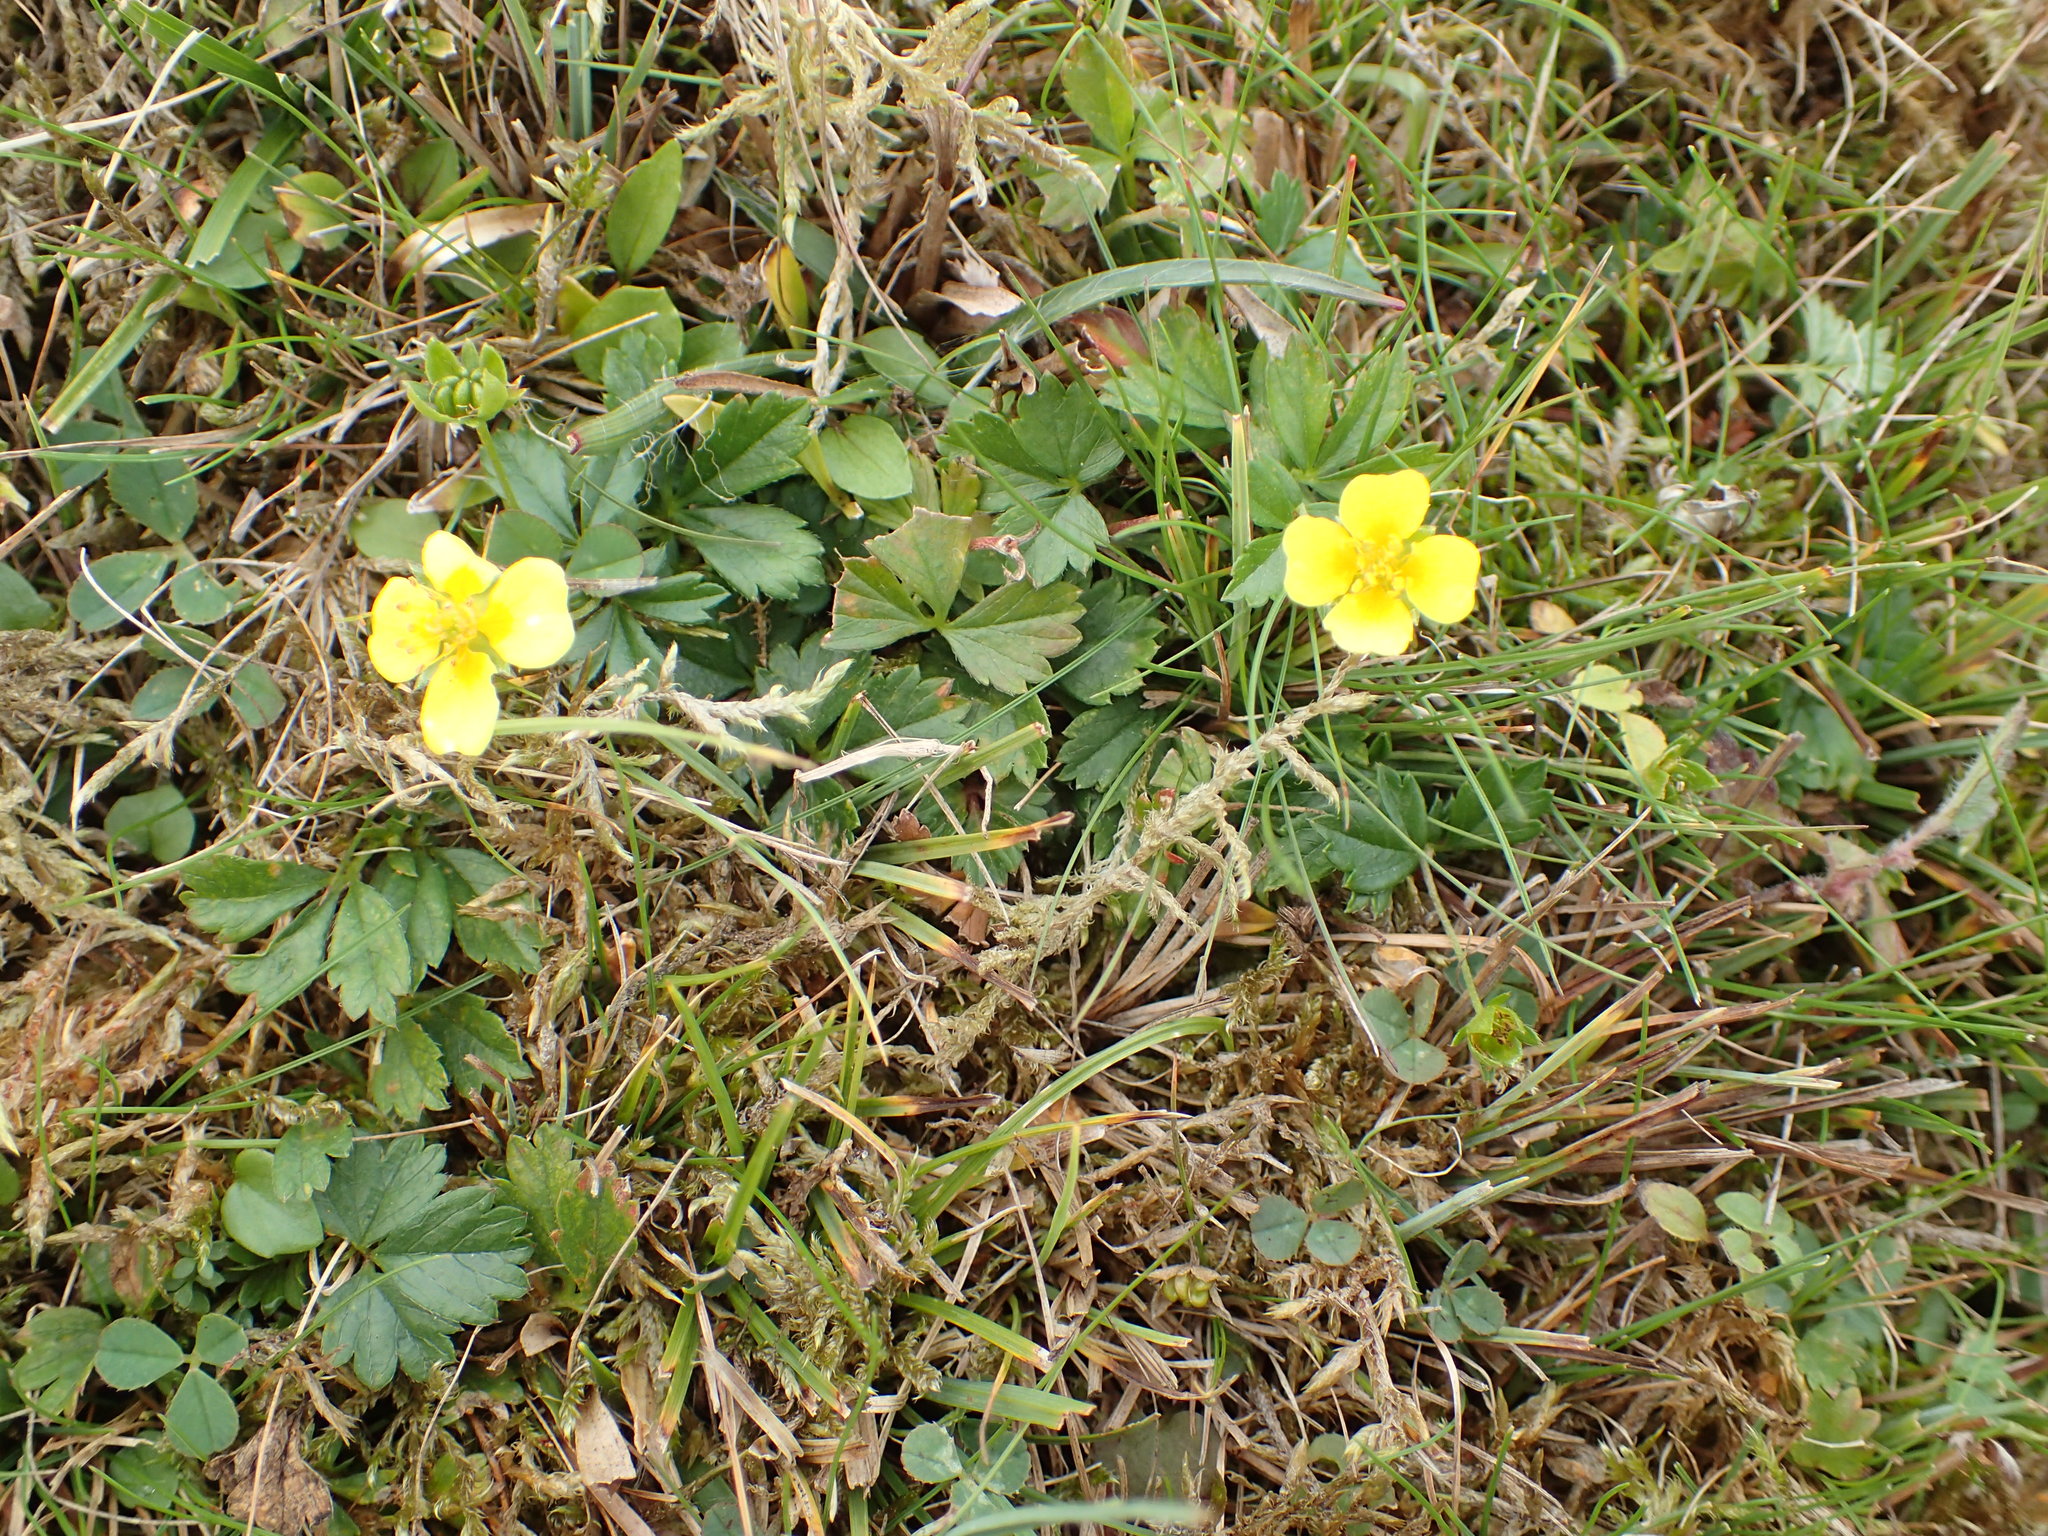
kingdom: Plantae
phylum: Tracheophyta
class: Magnoliopsida
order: Rosales
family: Rosaceae
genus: Potentilla
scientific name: Potentilla erecta
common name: Tormentil
